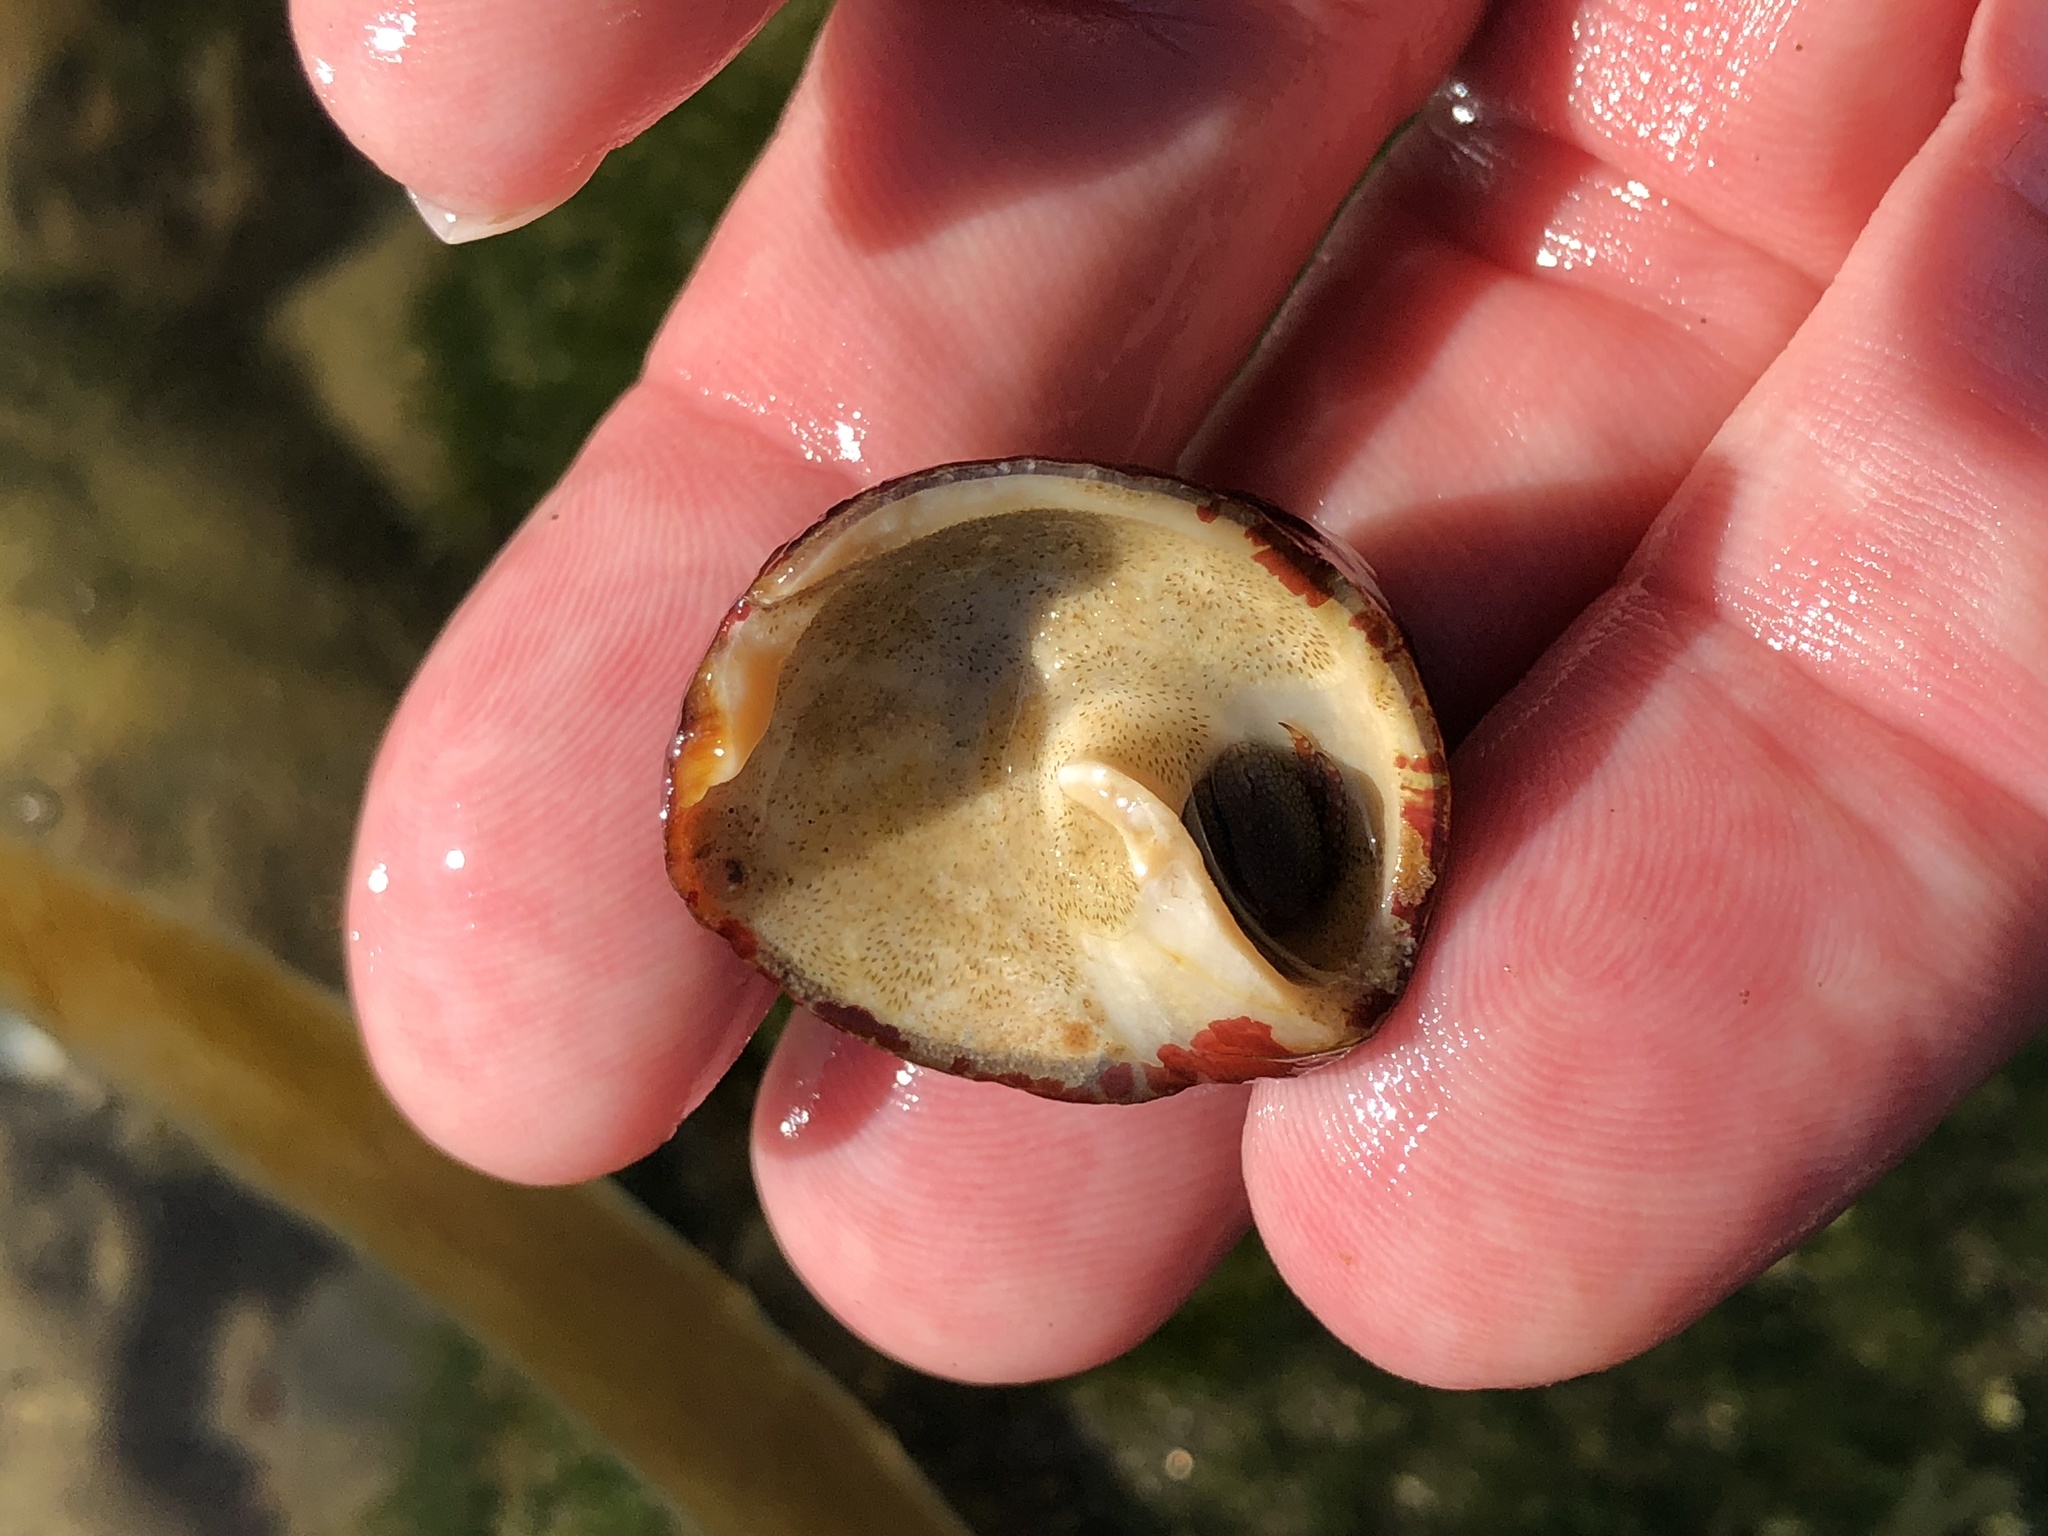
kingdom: Animalia
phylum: Mollusca
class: Gastropoda
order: Trochida
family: Tegulidae
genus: Tegula
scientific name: Tegula brunnea
